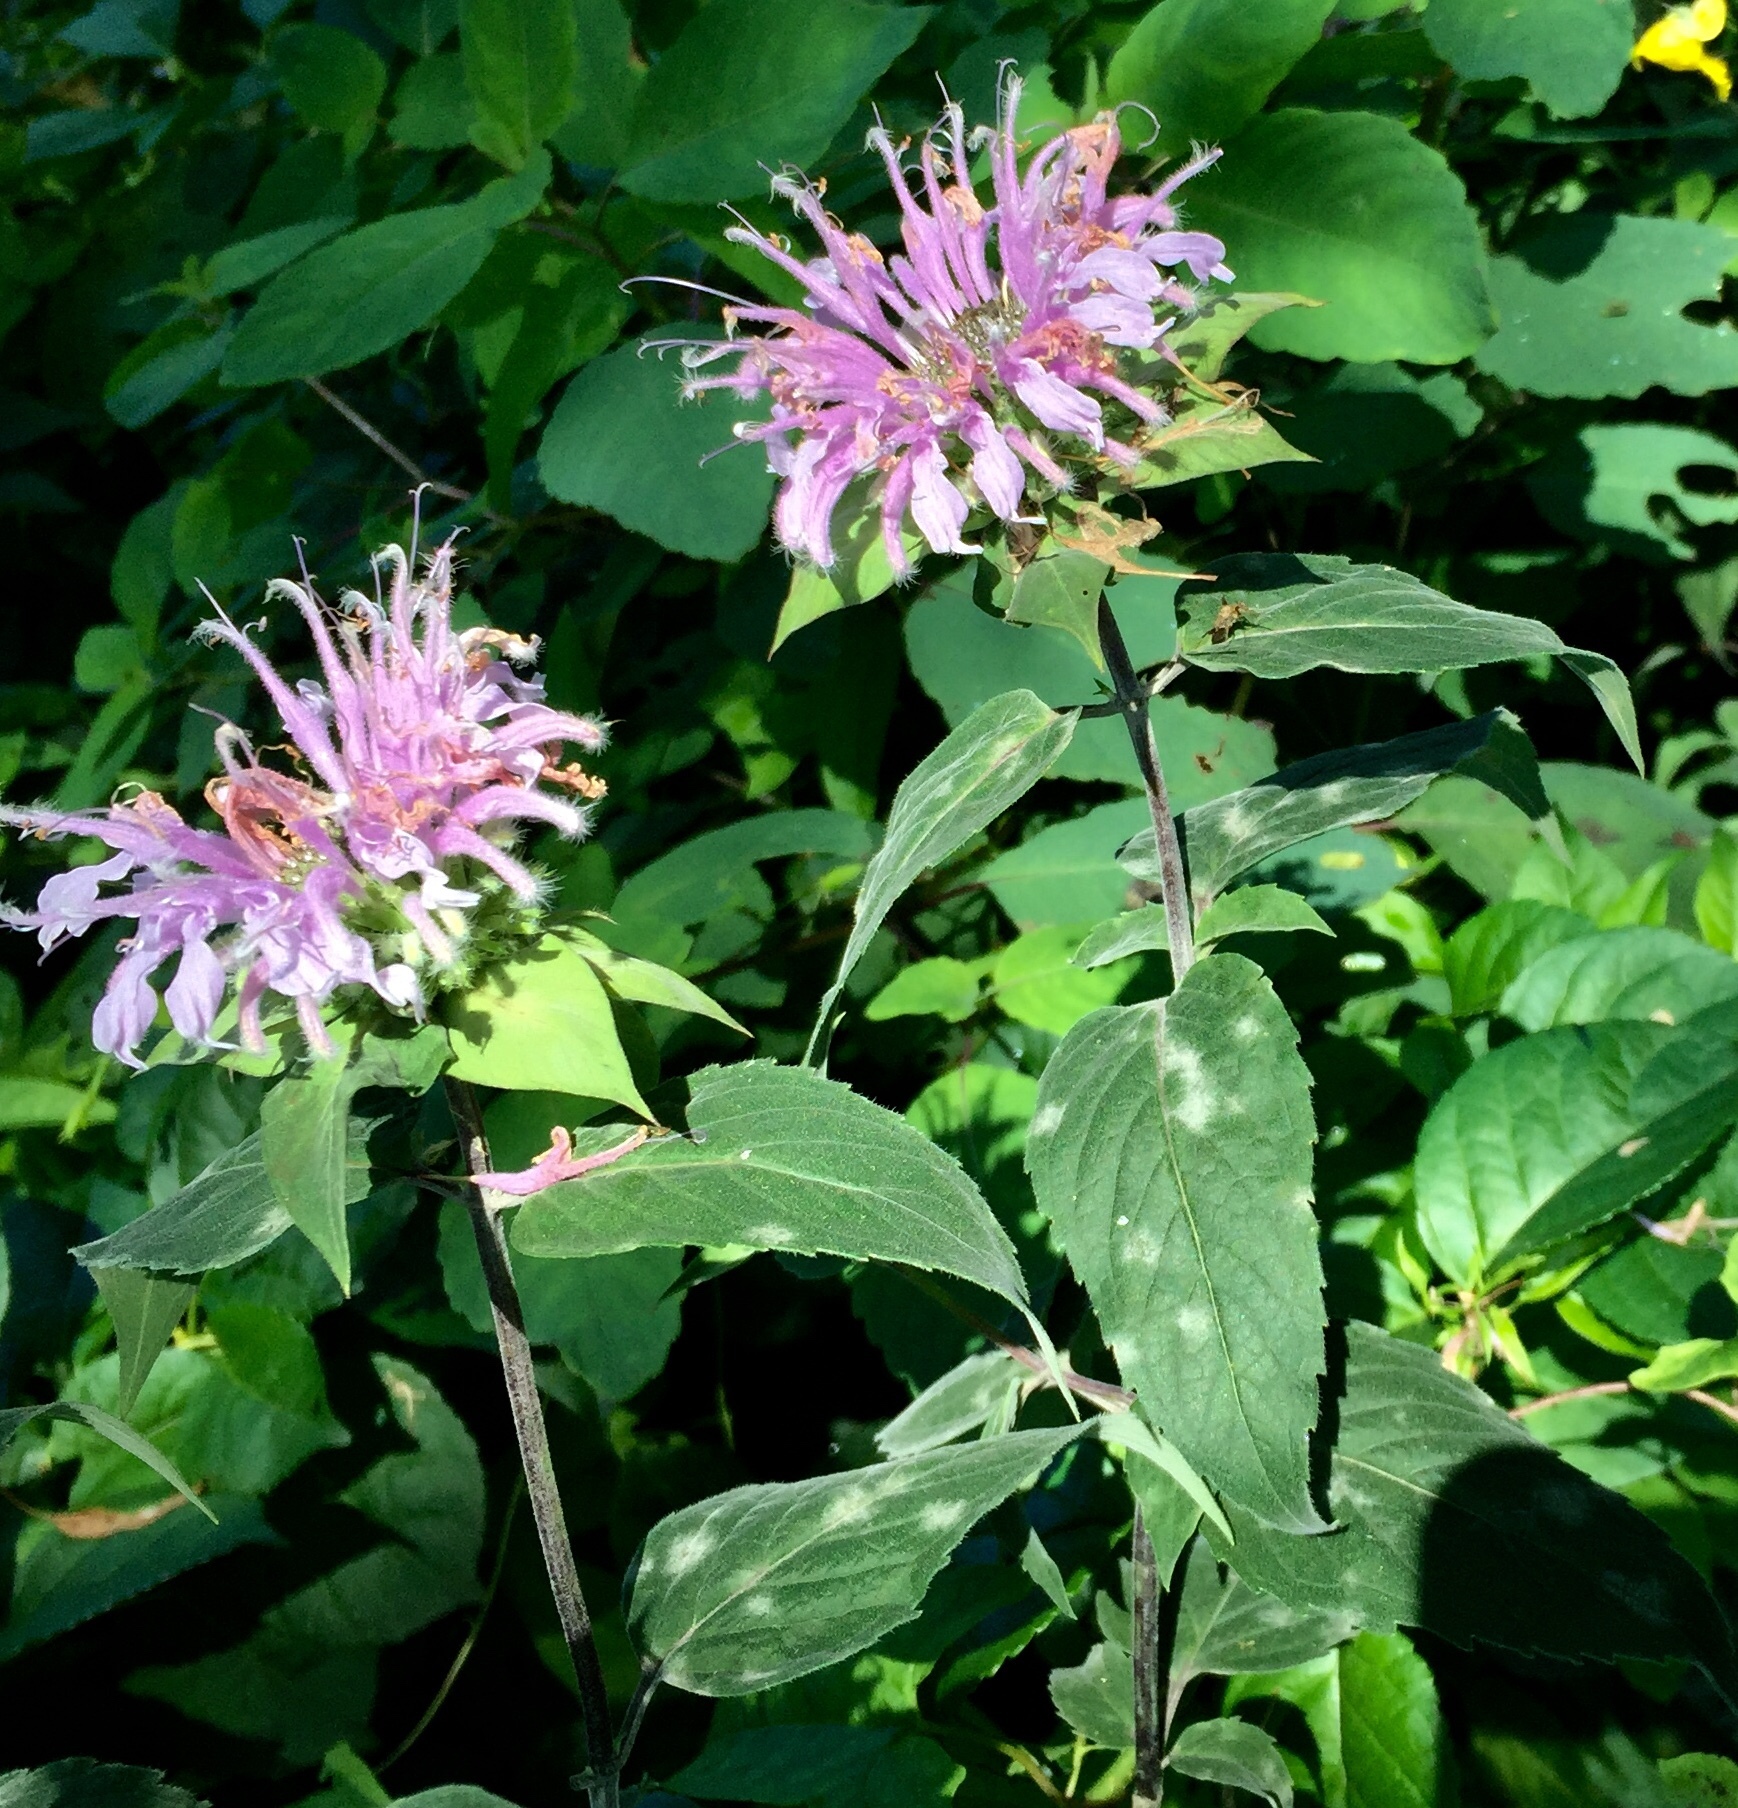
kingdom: Plantae
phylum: Tracheophyta
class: Magnoliopsida
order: Lamiales
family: Lamiaceae
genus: Monarda
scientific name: Monarda fistulosa
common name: Purple beebalm
